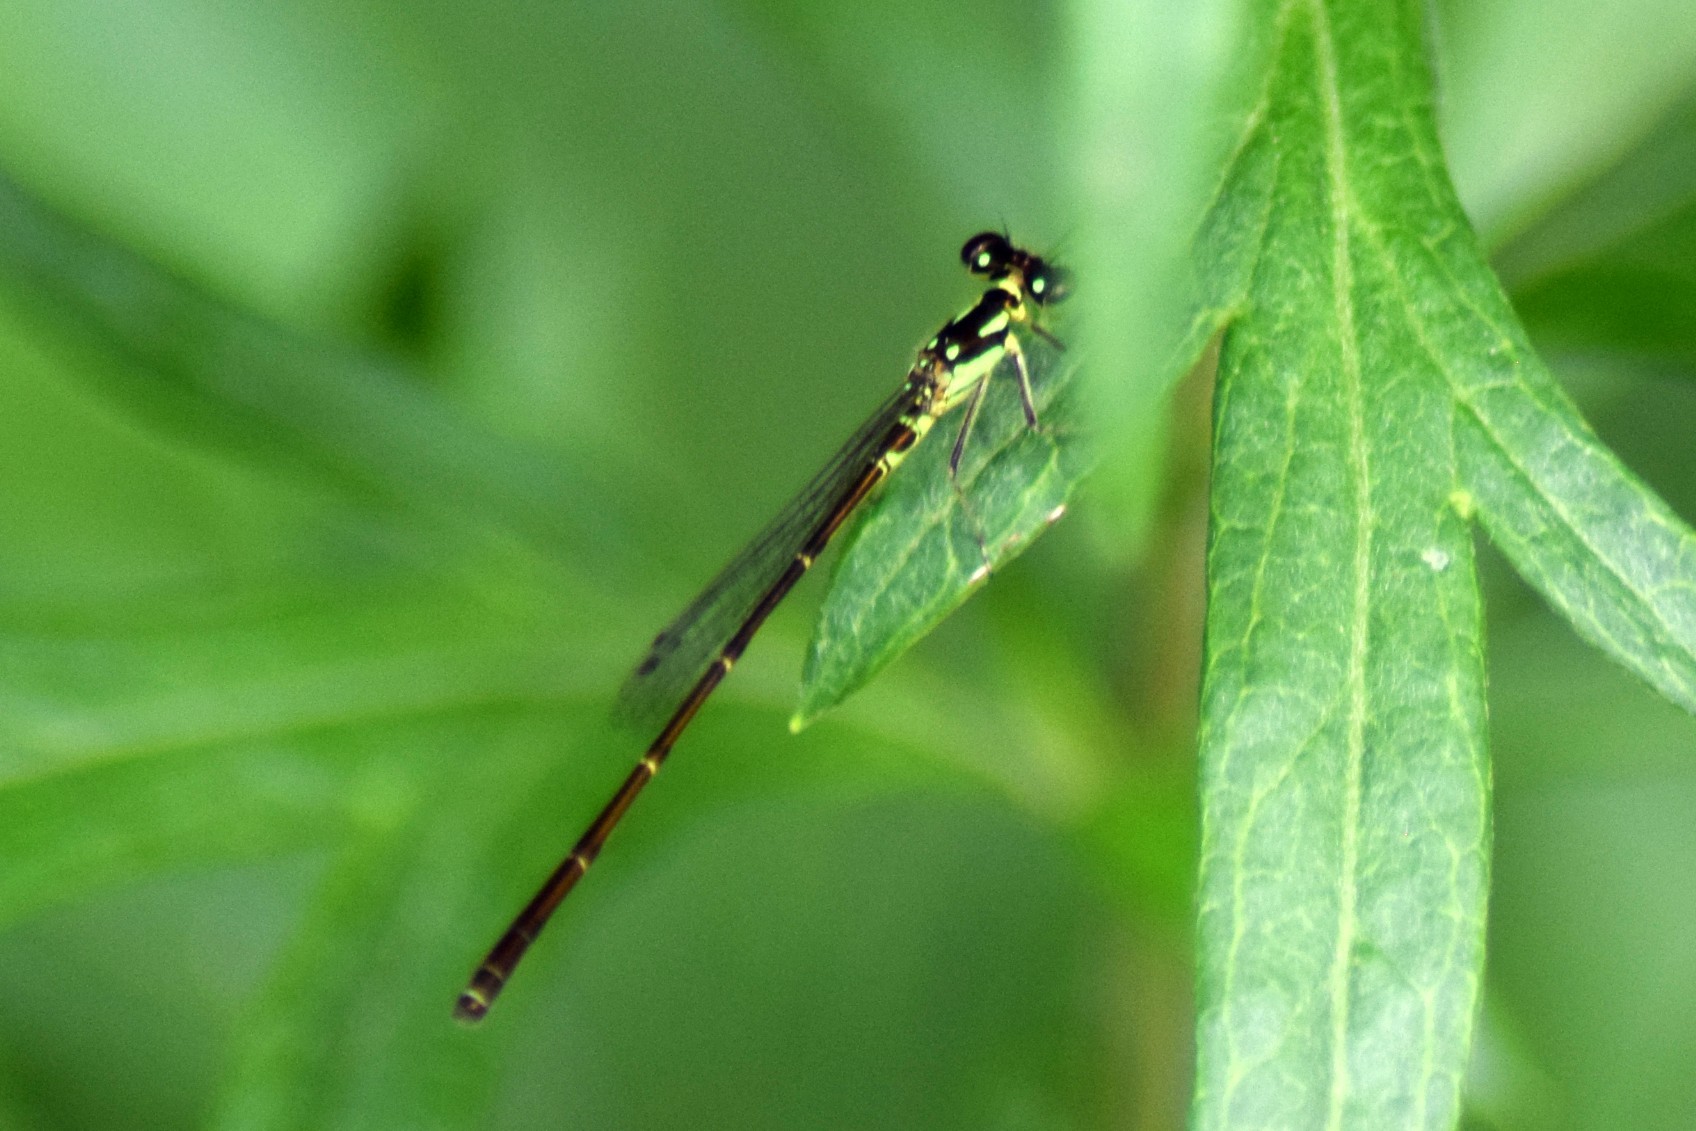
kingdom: Animalia
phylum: Arthropoda
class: Insecta
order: Odonata
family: Coenagrionidae
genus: Ischnura
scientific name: Ischnura posita
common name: Fragile forktail
